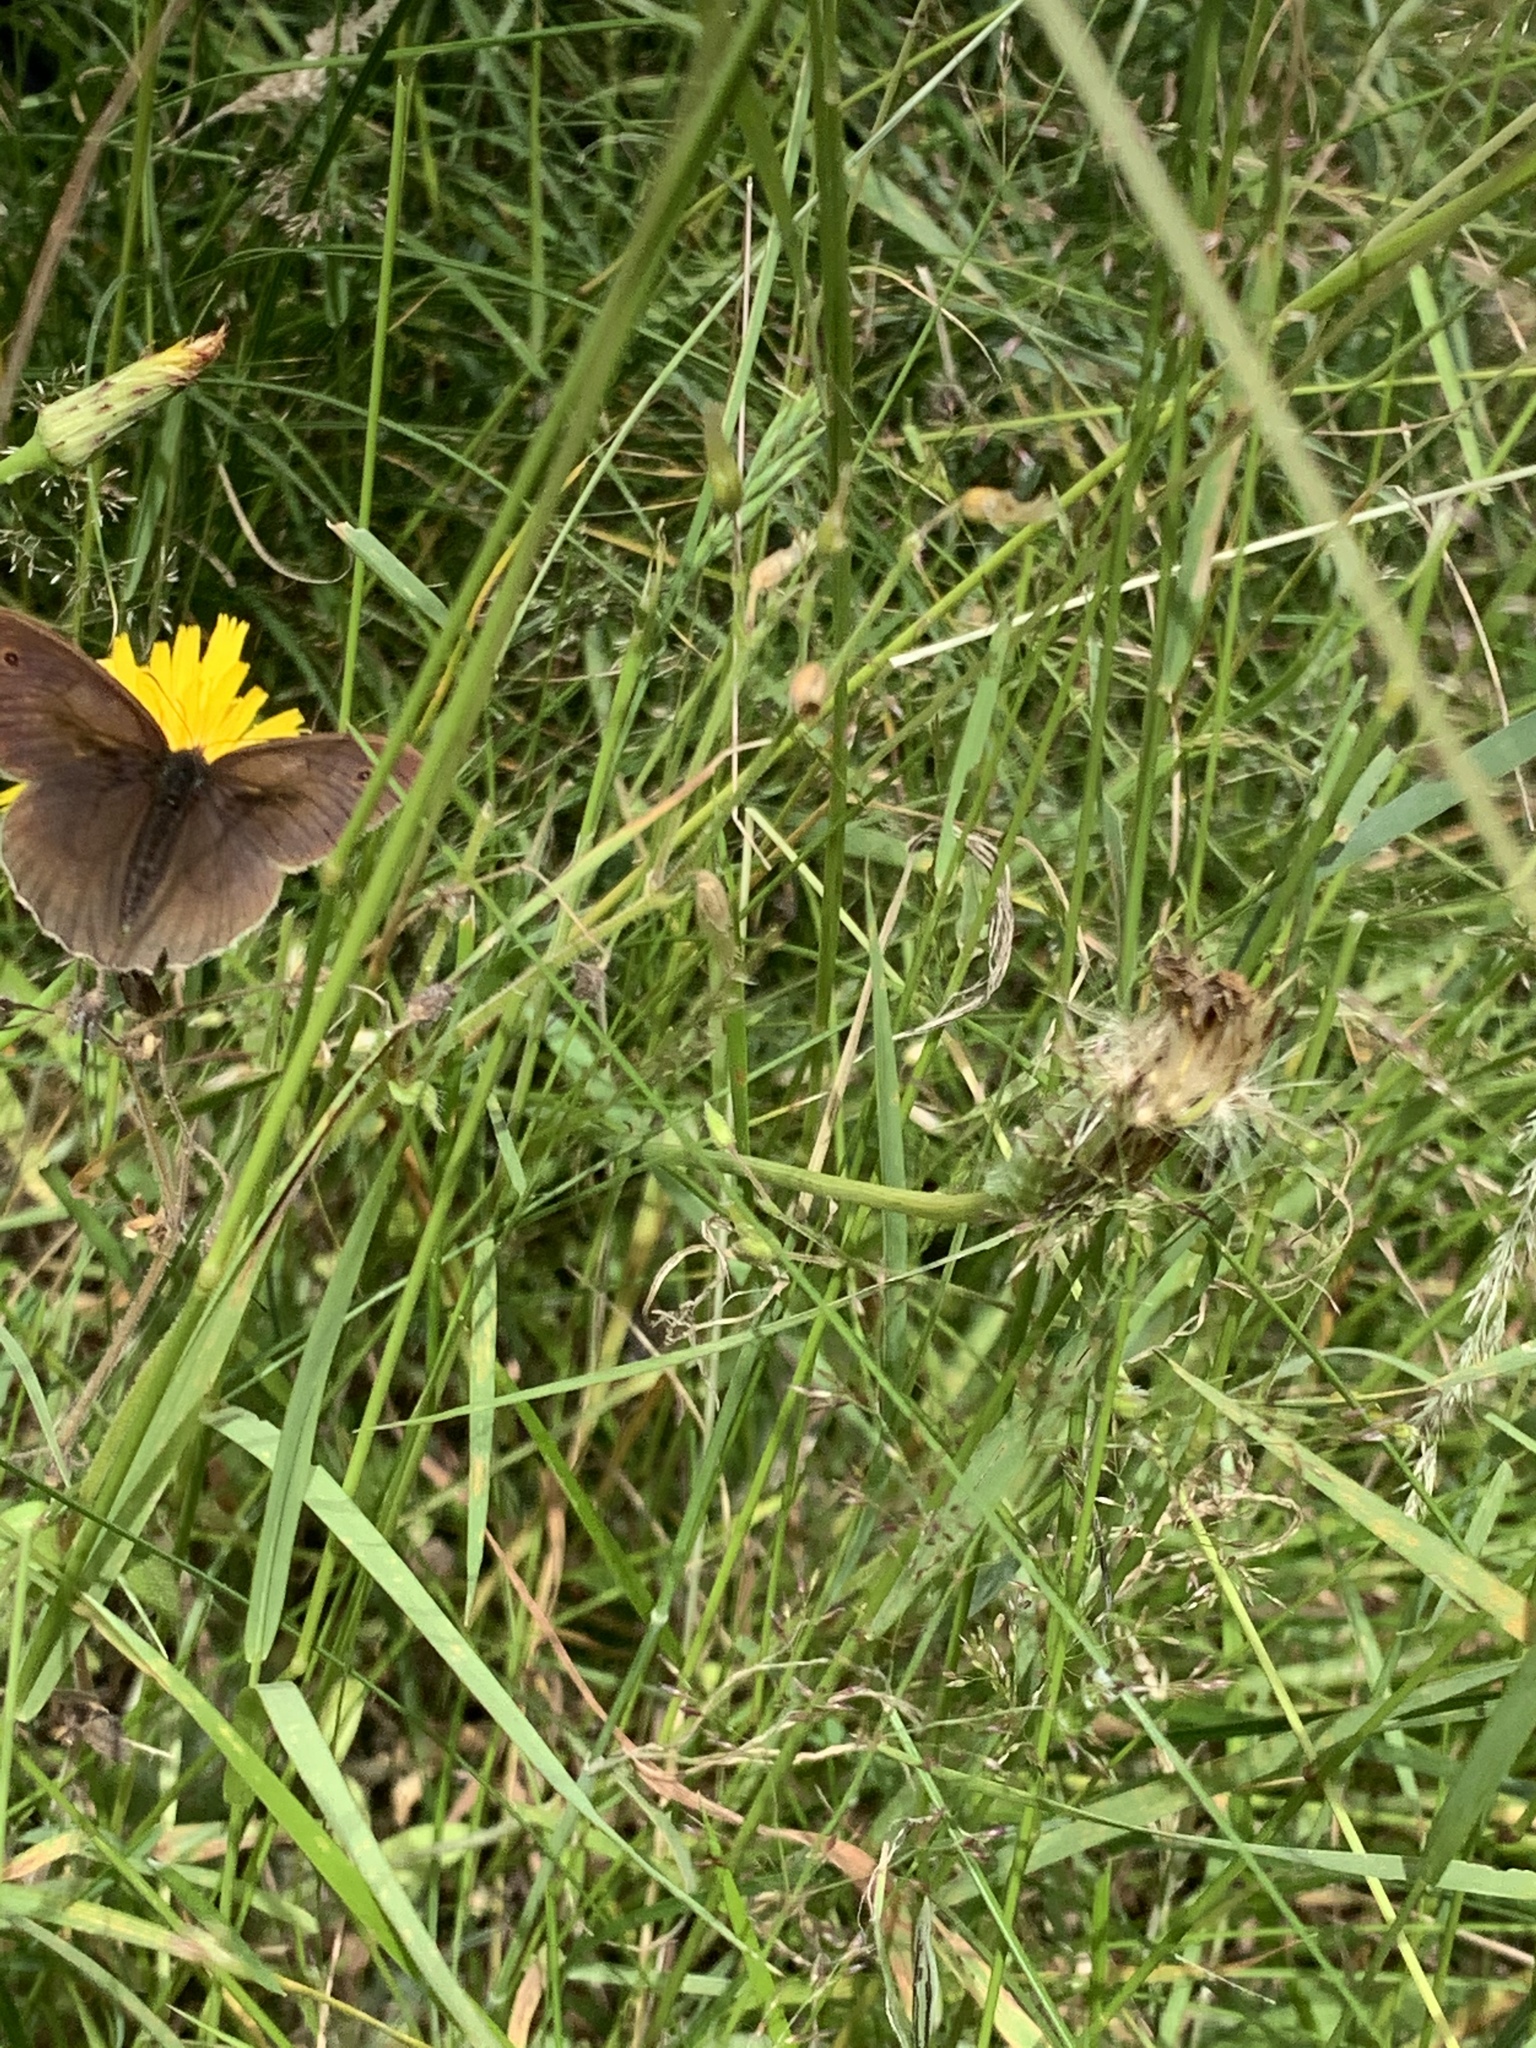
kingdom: Animalia
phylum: Arthropoda
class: Insecta
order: Lepidoptera
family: Nymphalidae
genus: Maniola
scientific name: Maniola jurtina
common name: Meadow brown
